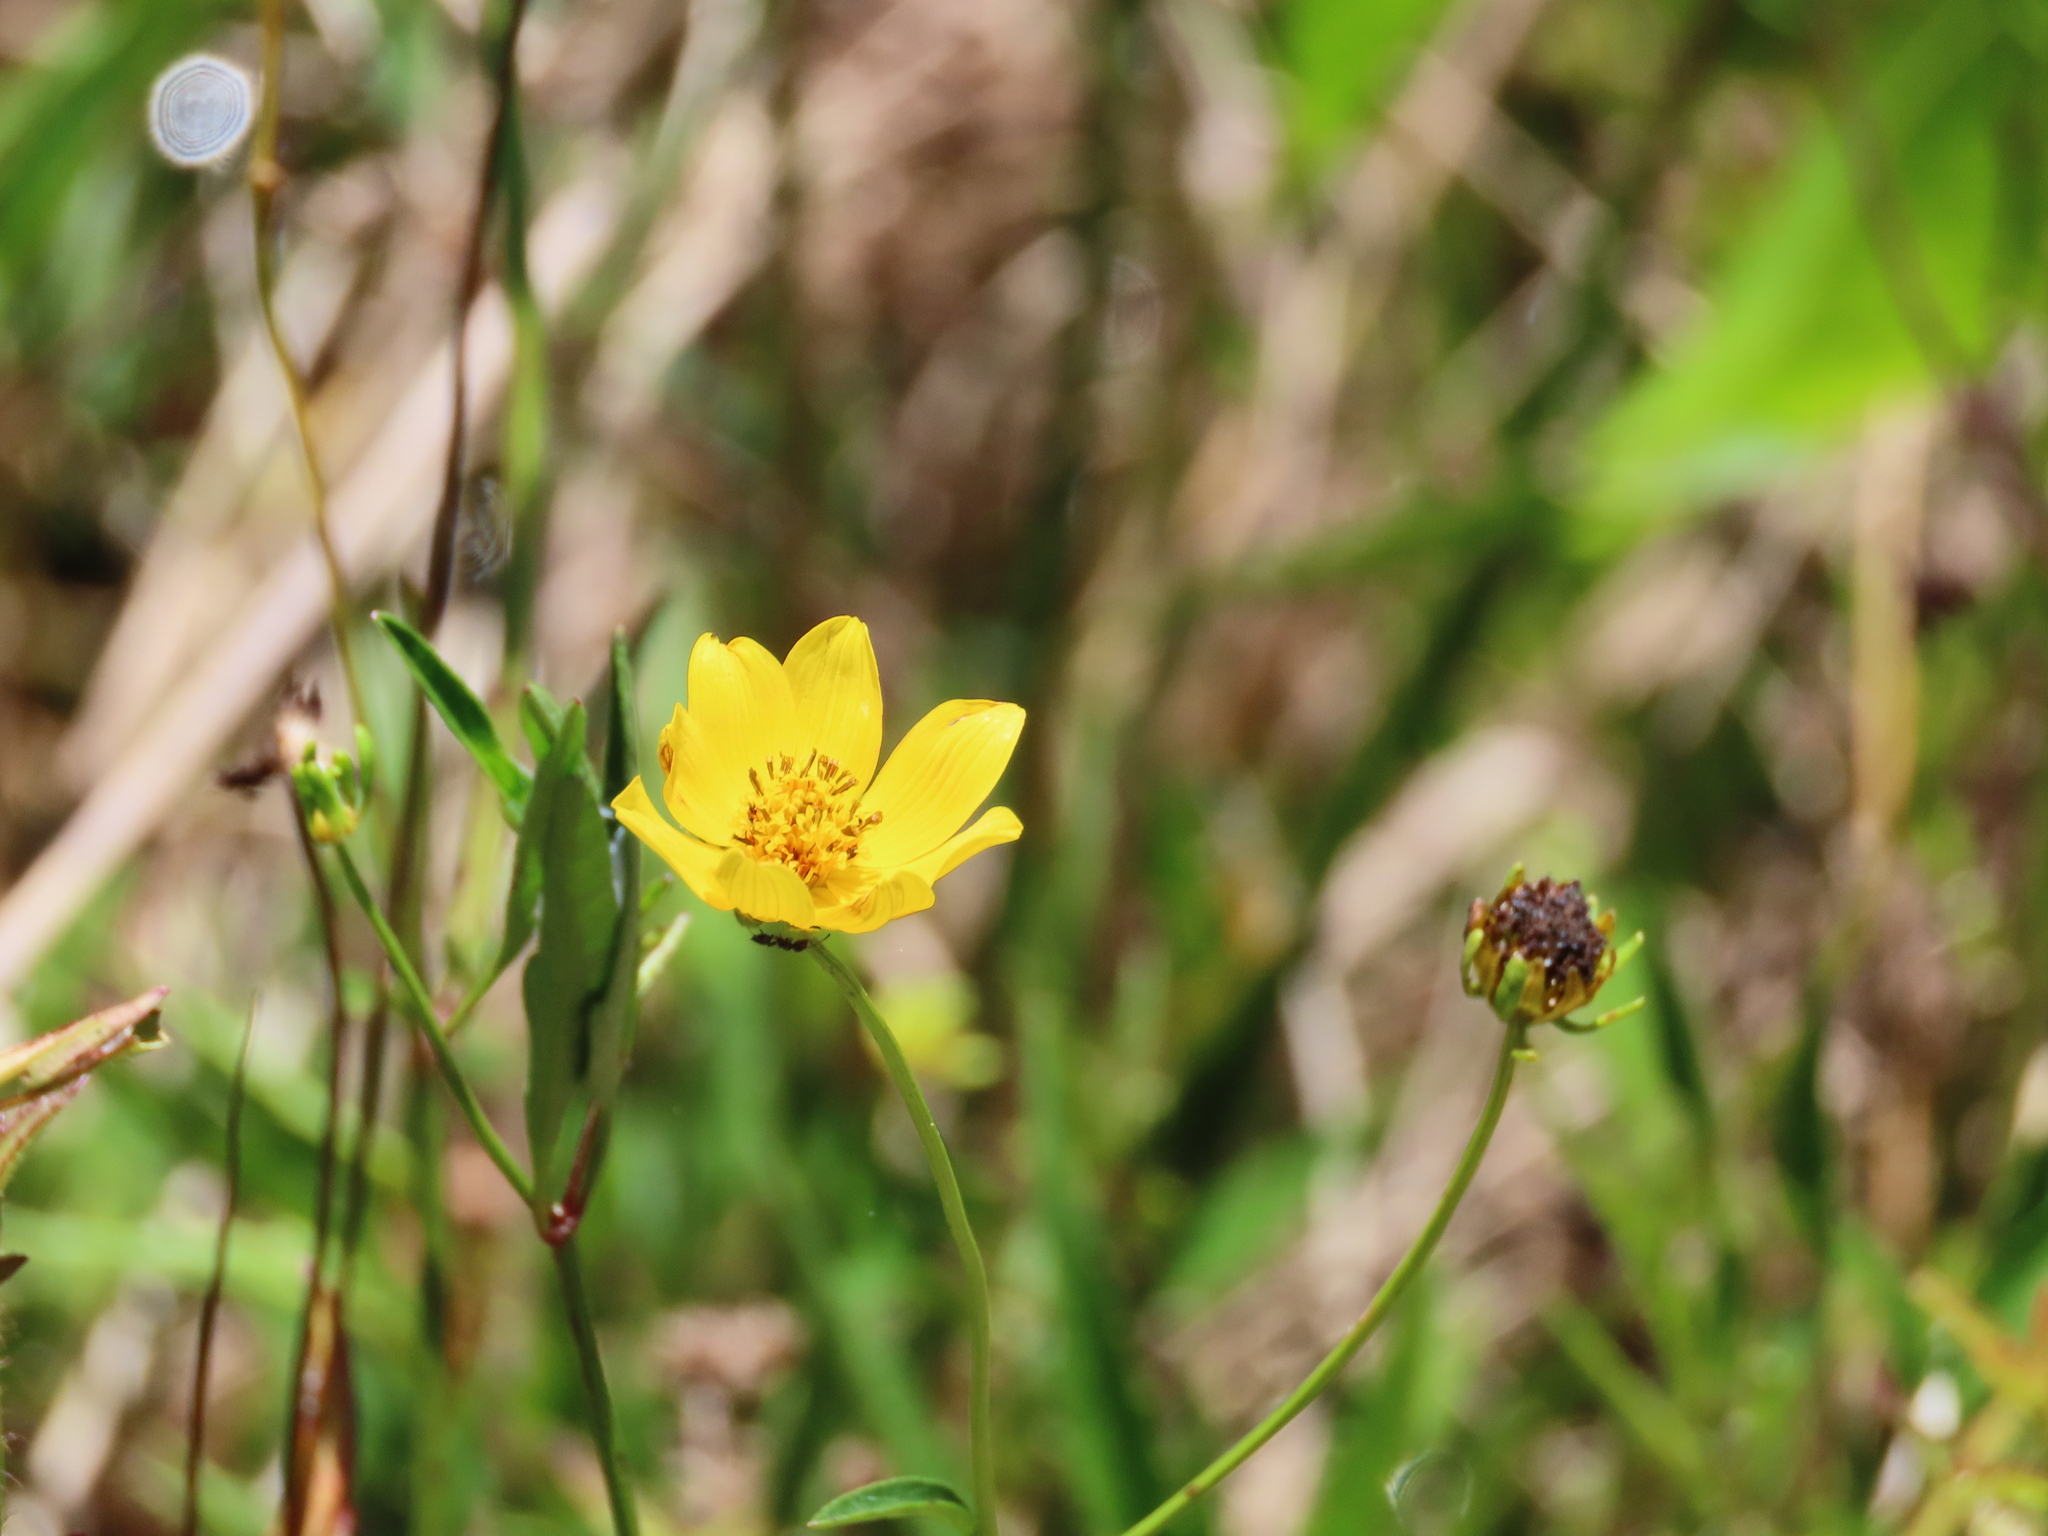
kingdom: Plantae
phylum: Tracheophyta
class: Magnoliopsida
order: Asterales
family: Asteraceae
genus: Bidens
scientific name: Bidens mitis
